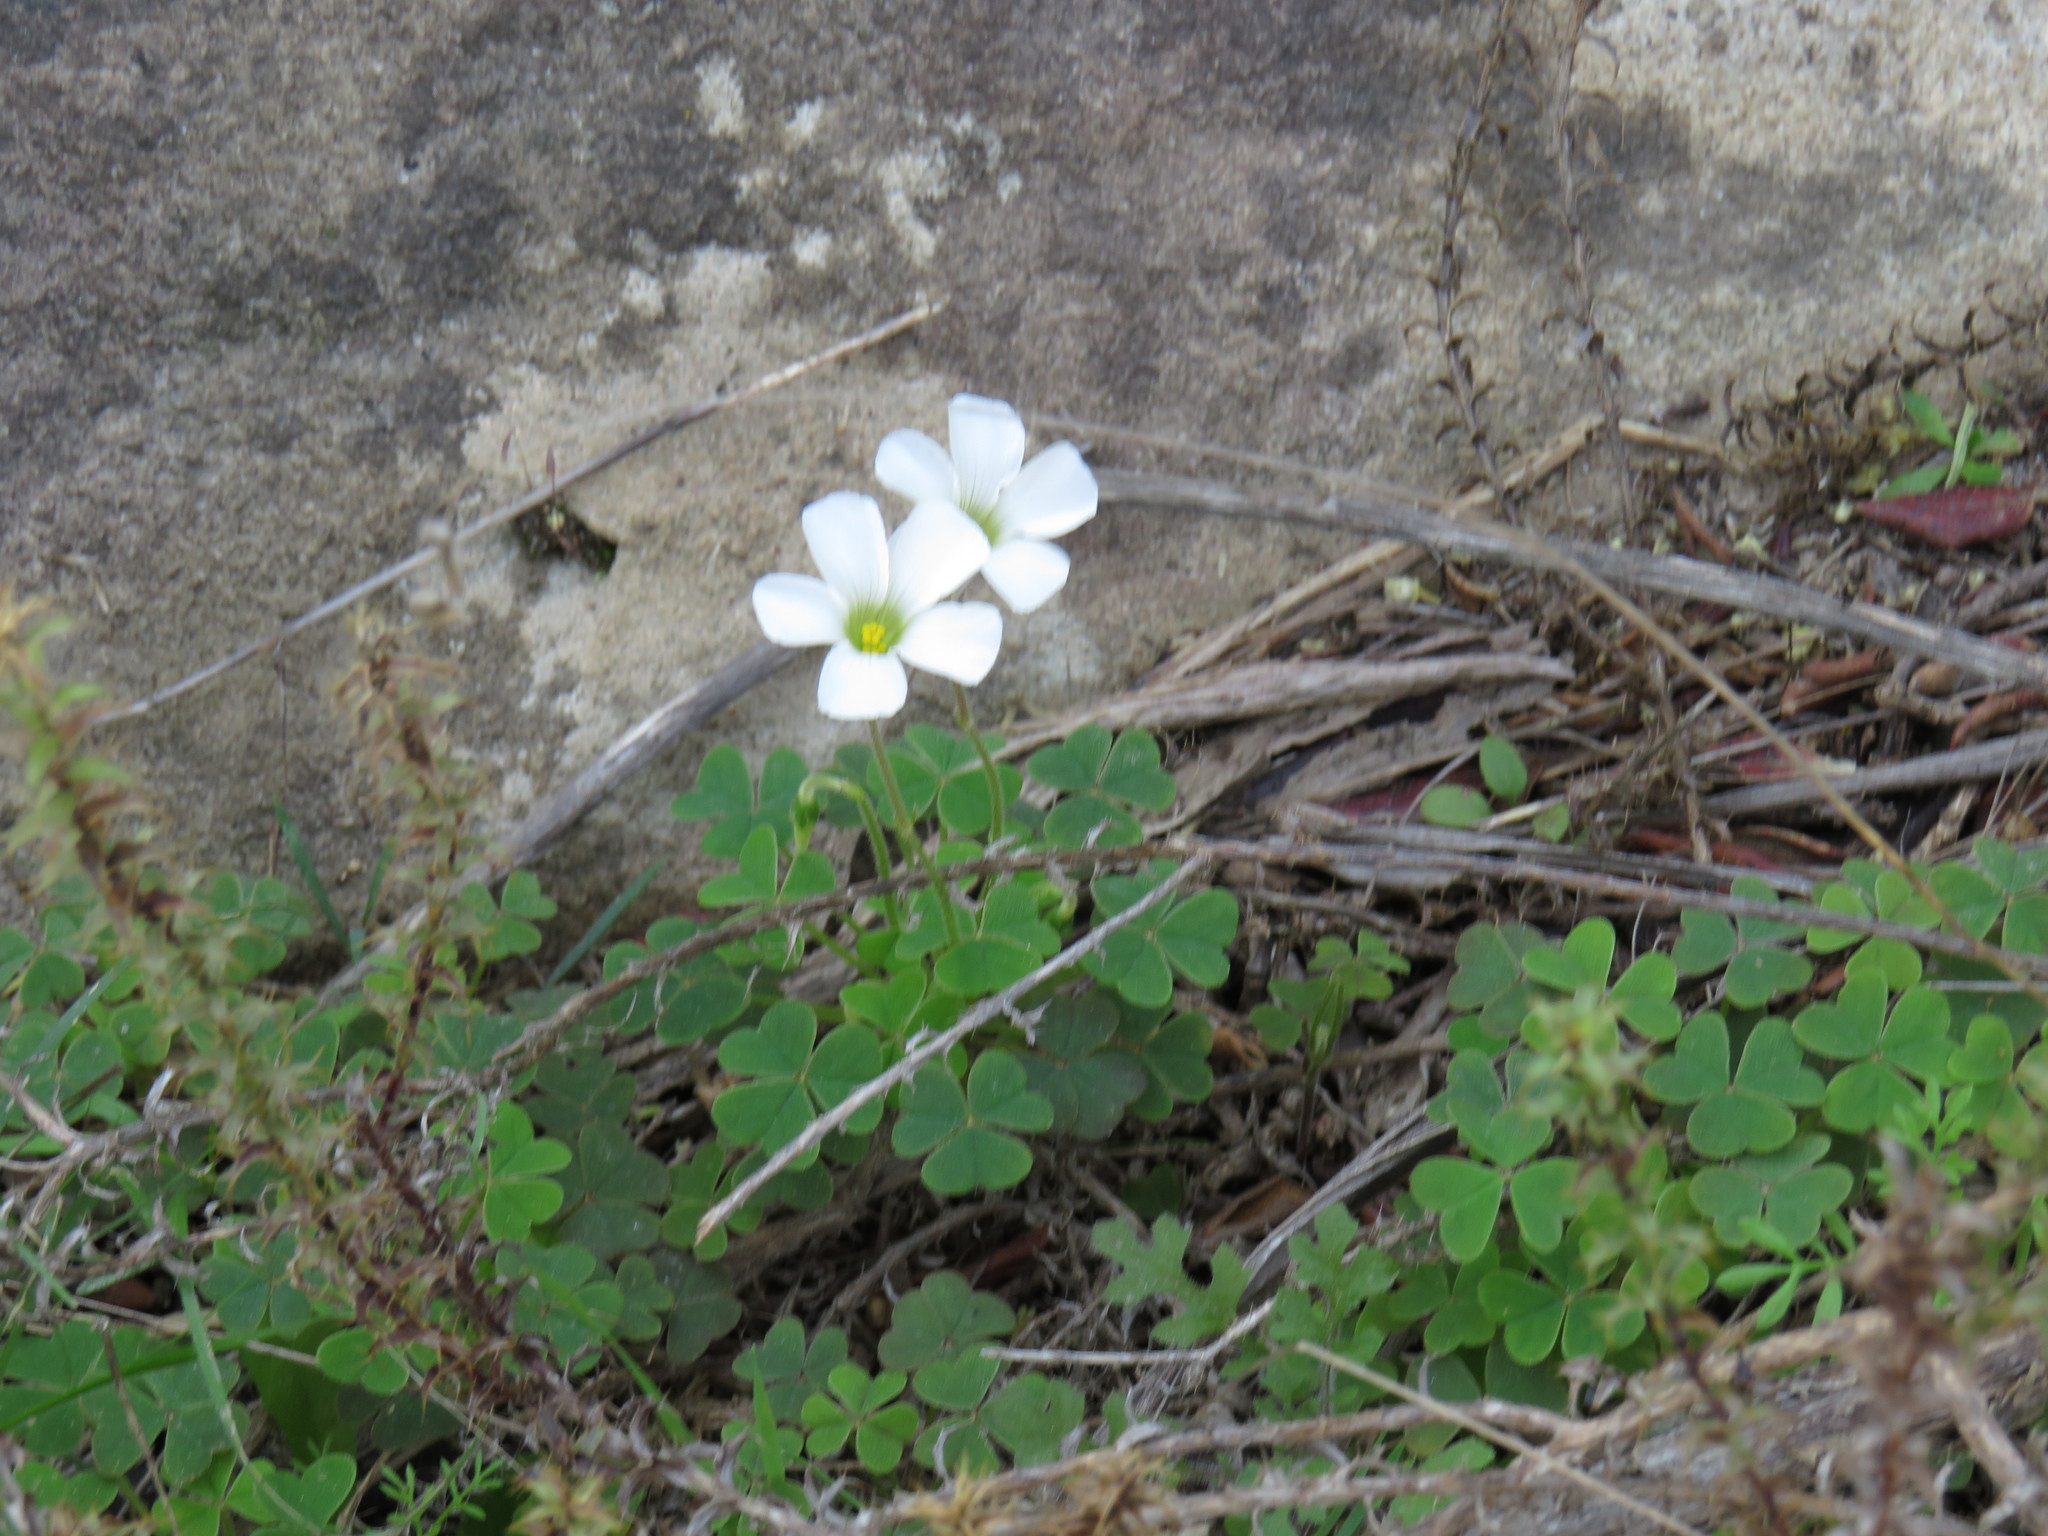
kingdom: Plantae
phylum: Tracheophyta
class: Magnoliopsida
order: Oxalidales
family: Oxalidaceae
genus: Oxalis
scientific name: Oxalis lanata
